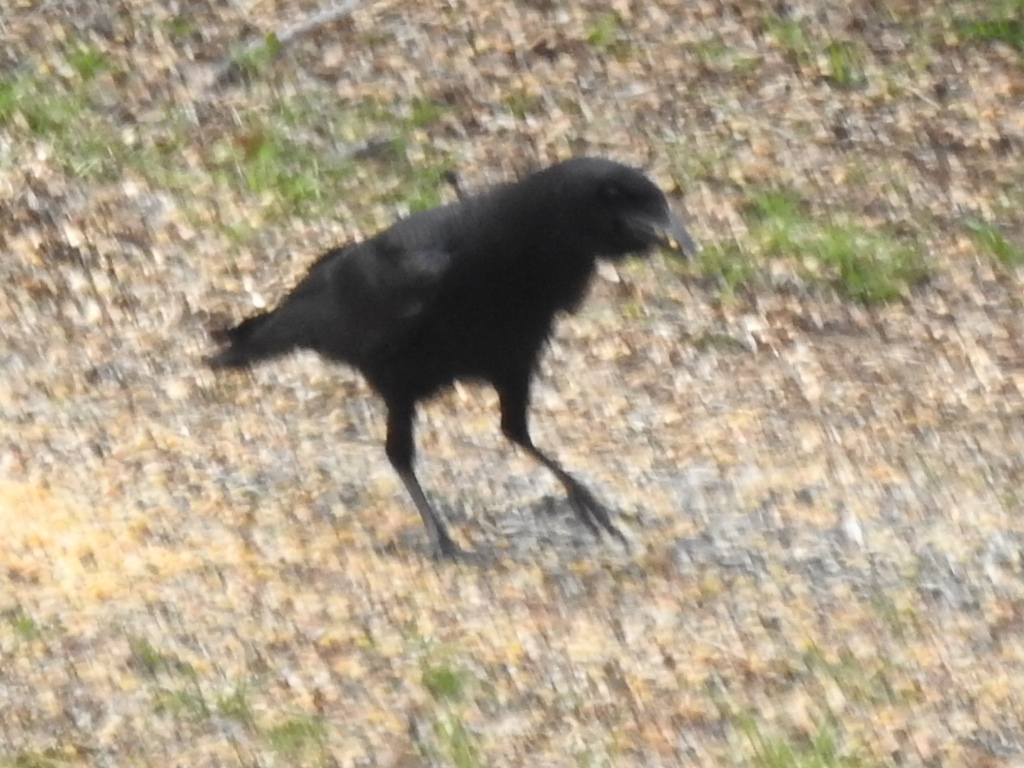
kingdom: Animalia
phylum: Chordata
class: Aves
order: Passeriformes
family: Corvidae
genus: Corvus
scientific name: Corvus brachyrhynchos
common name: American crow
